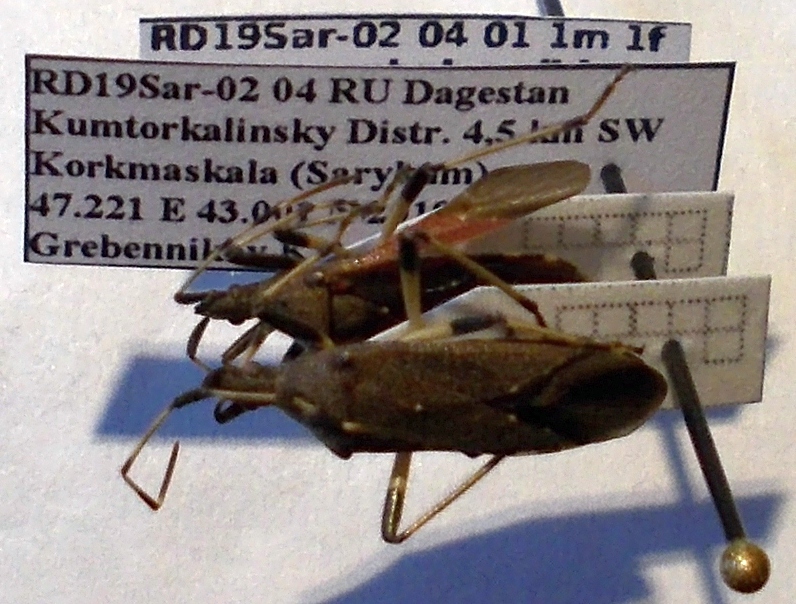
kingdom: Animalia
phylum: Arthropoda
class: Insecta
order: Hemiptera
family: Stenocephalidae
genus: Dicranocephalus
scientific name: Dicranocephalus albipes
